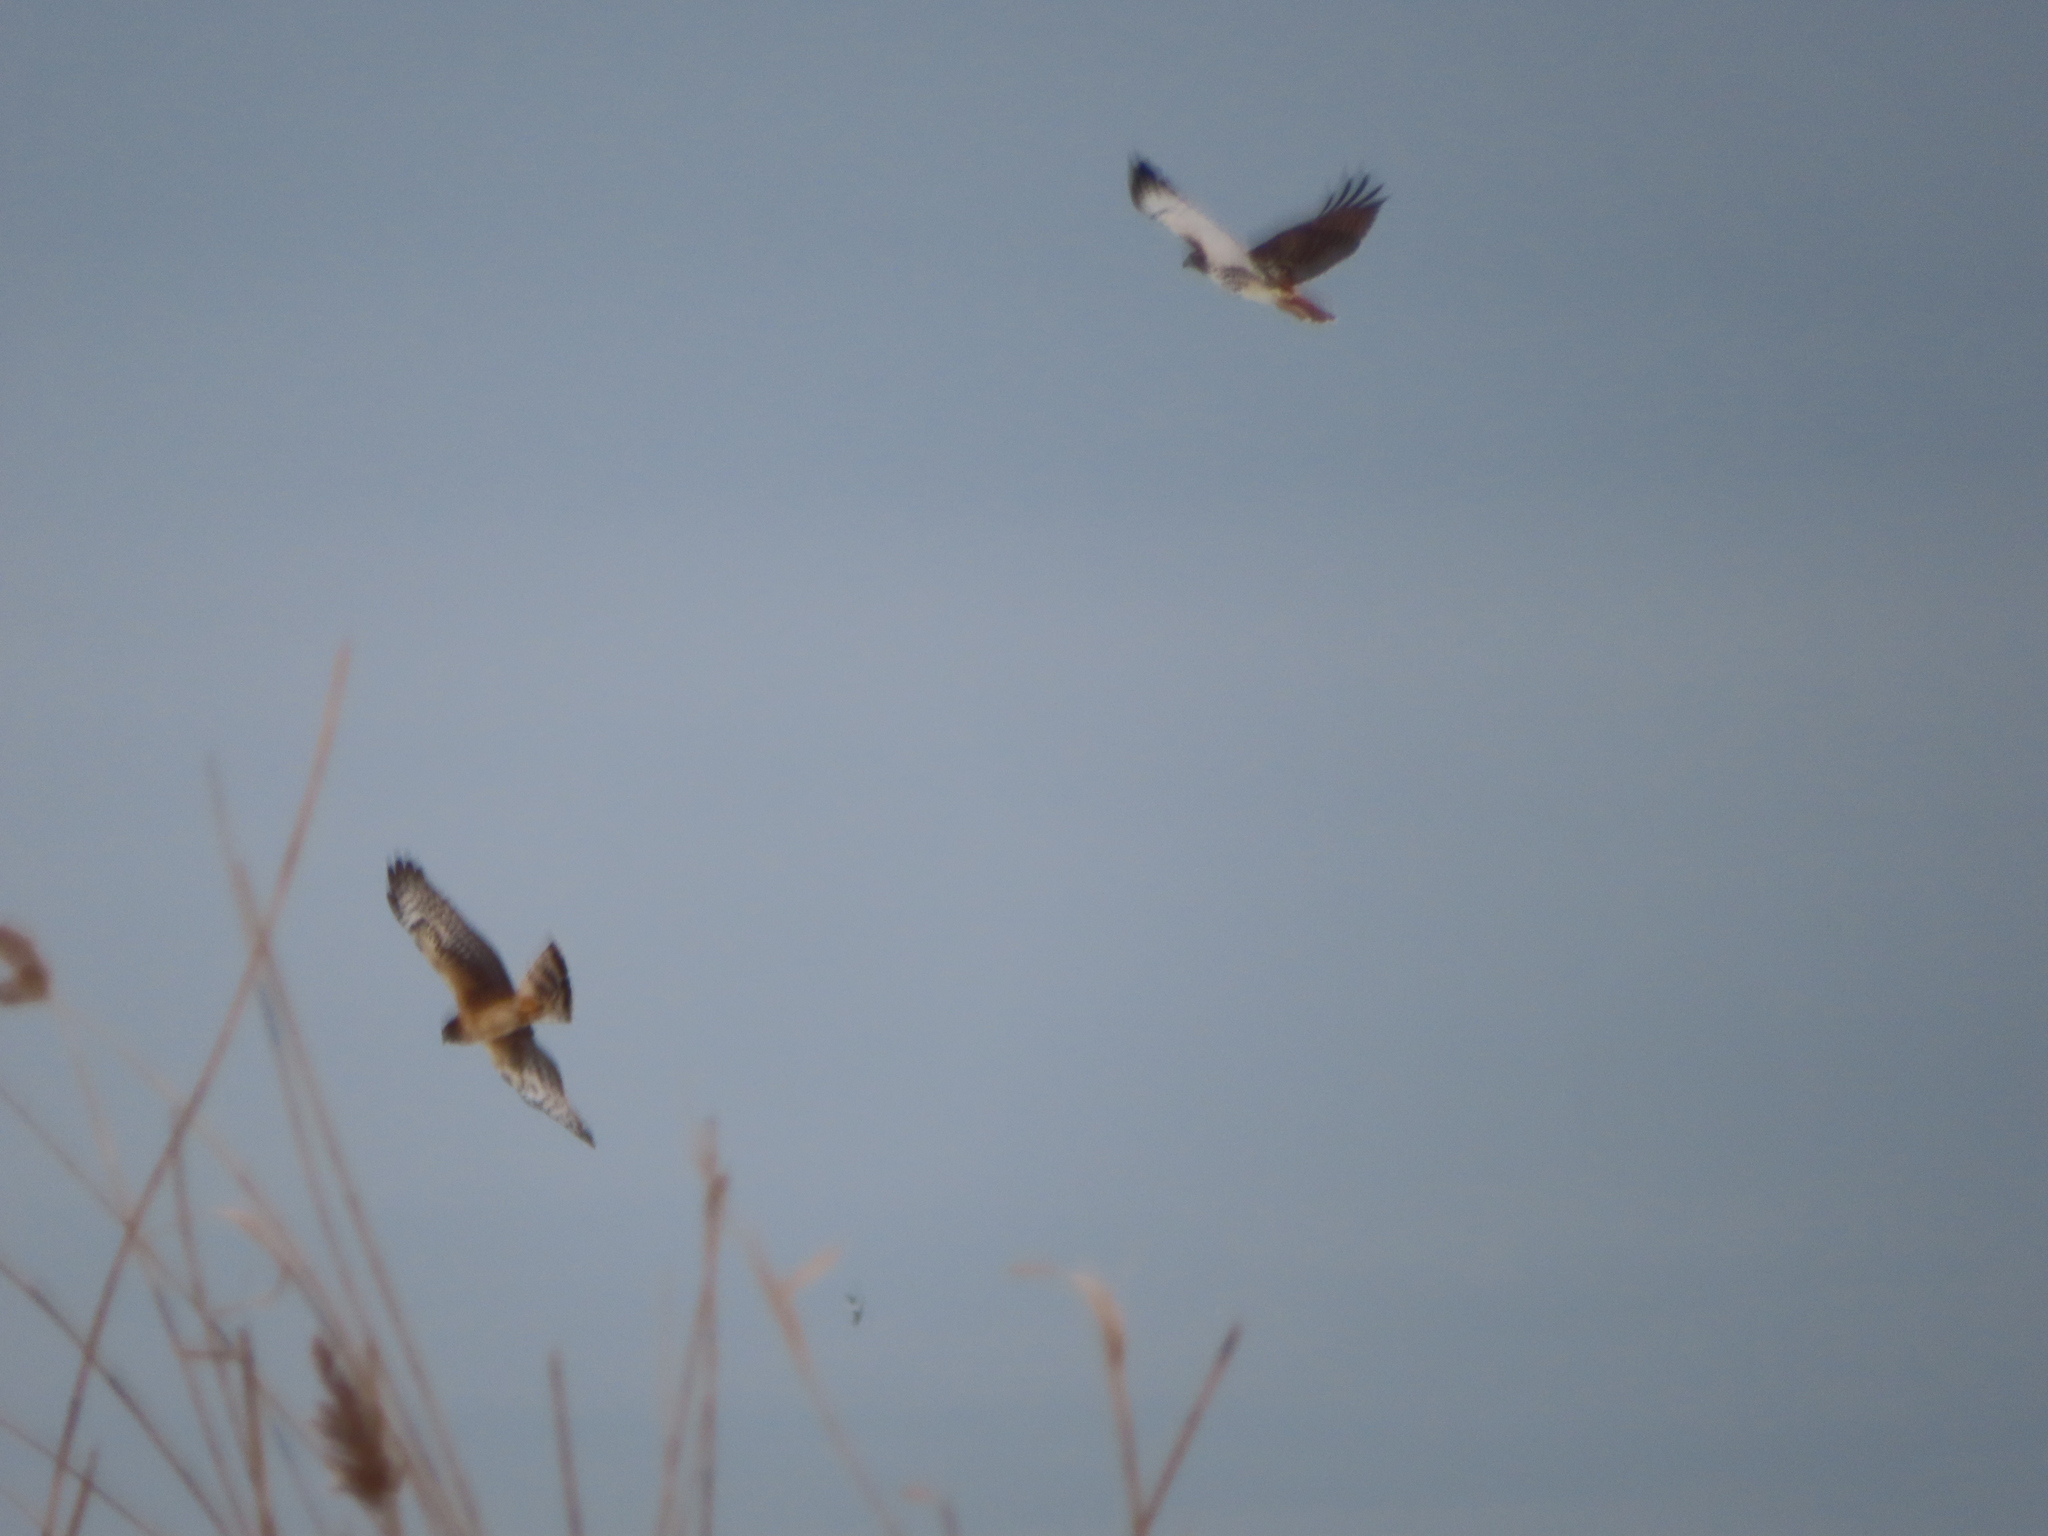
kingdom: Animalia
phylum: Chordata
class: Aves
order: Accipitriformes
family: Accipitridae
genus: Circus
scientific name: Circus cyaneus
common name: Hen harrier
